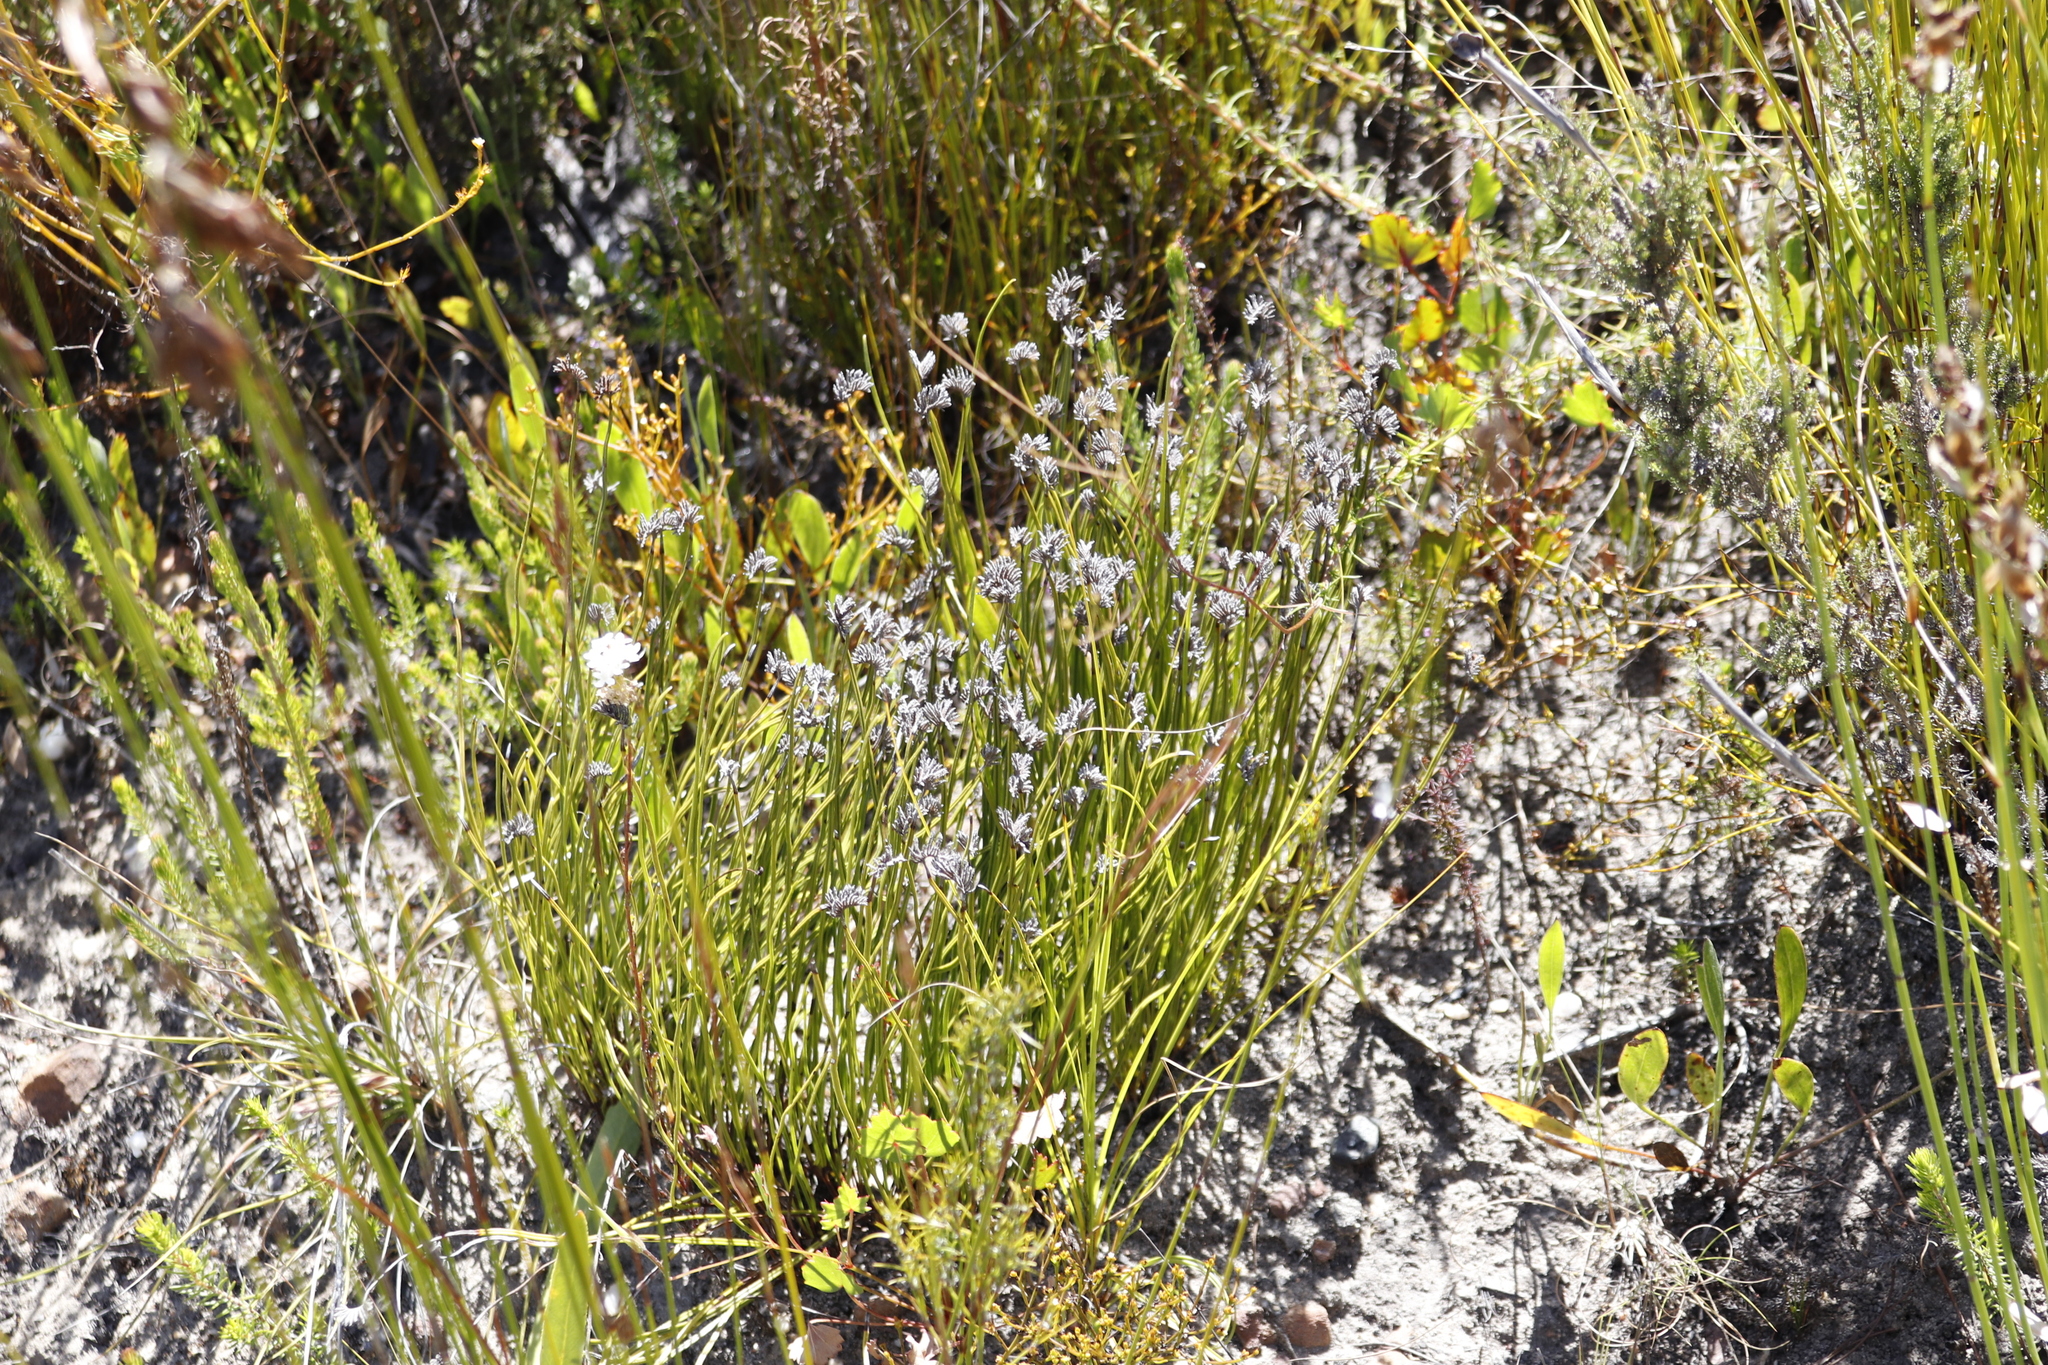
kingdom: Plantae
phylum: Tracheophyta
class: Polypodiopsida
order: Schizaeales
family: Schizaeaceae
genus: Schizaea
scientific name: Schizaea pectinata
